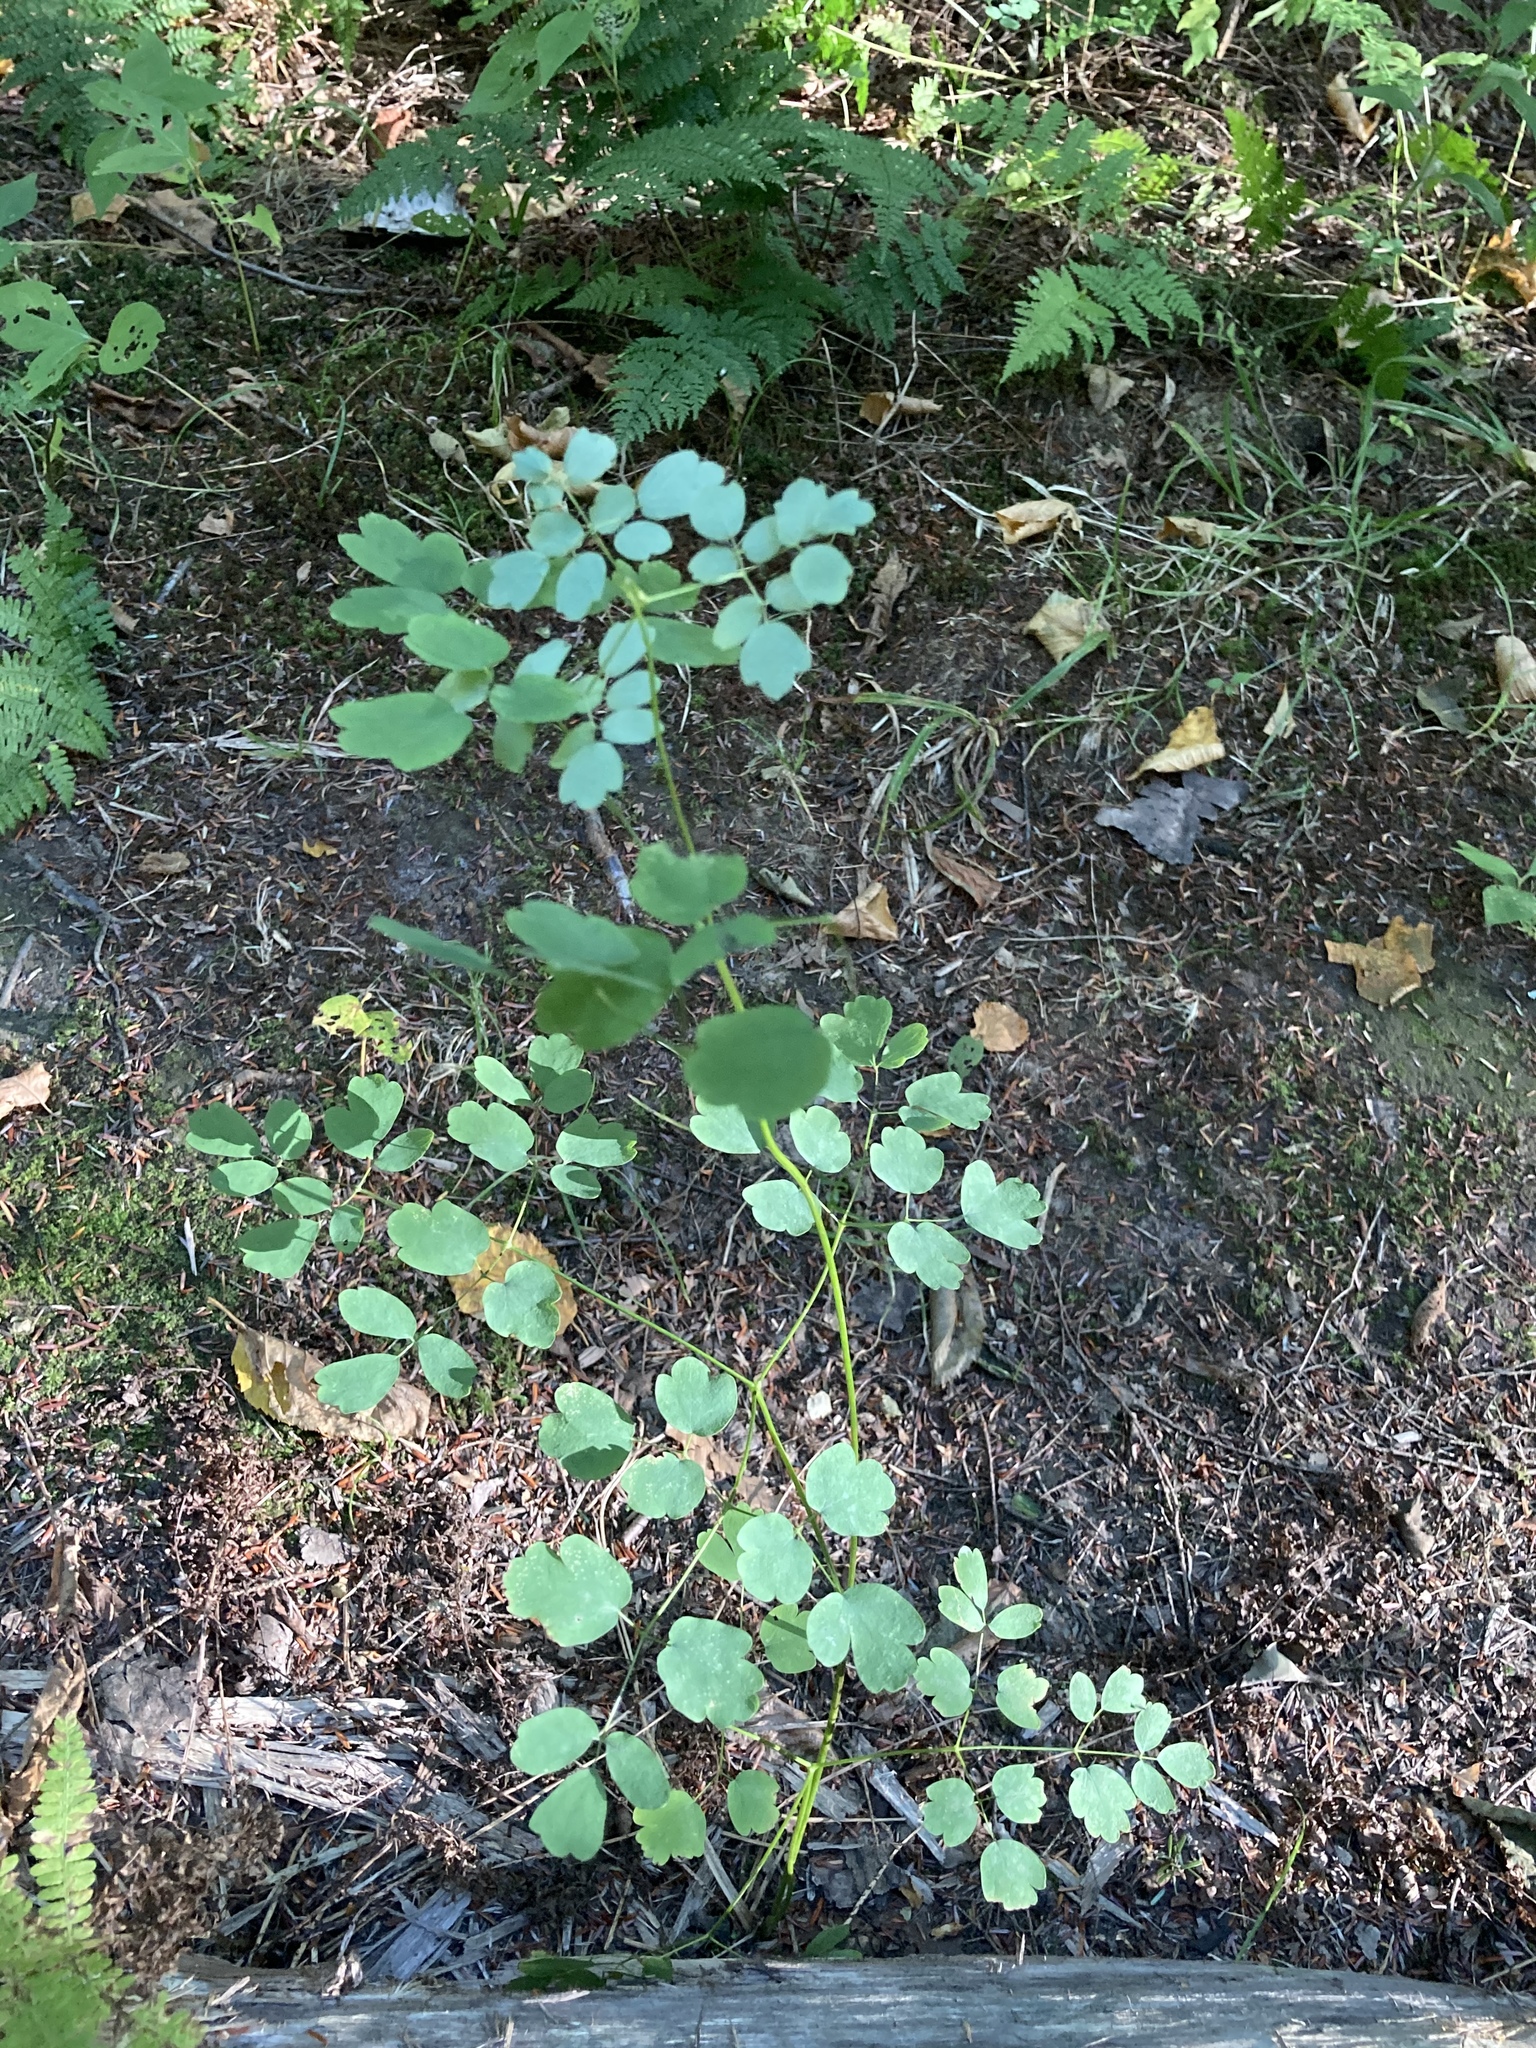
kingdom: Plantae
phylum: Tracheophyta
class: Magnoliopsida
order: Ranunculales
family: Ranunculaceae
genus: Thalictrum
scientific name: Thalictrum pubescens
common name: King-of-the-meadow
